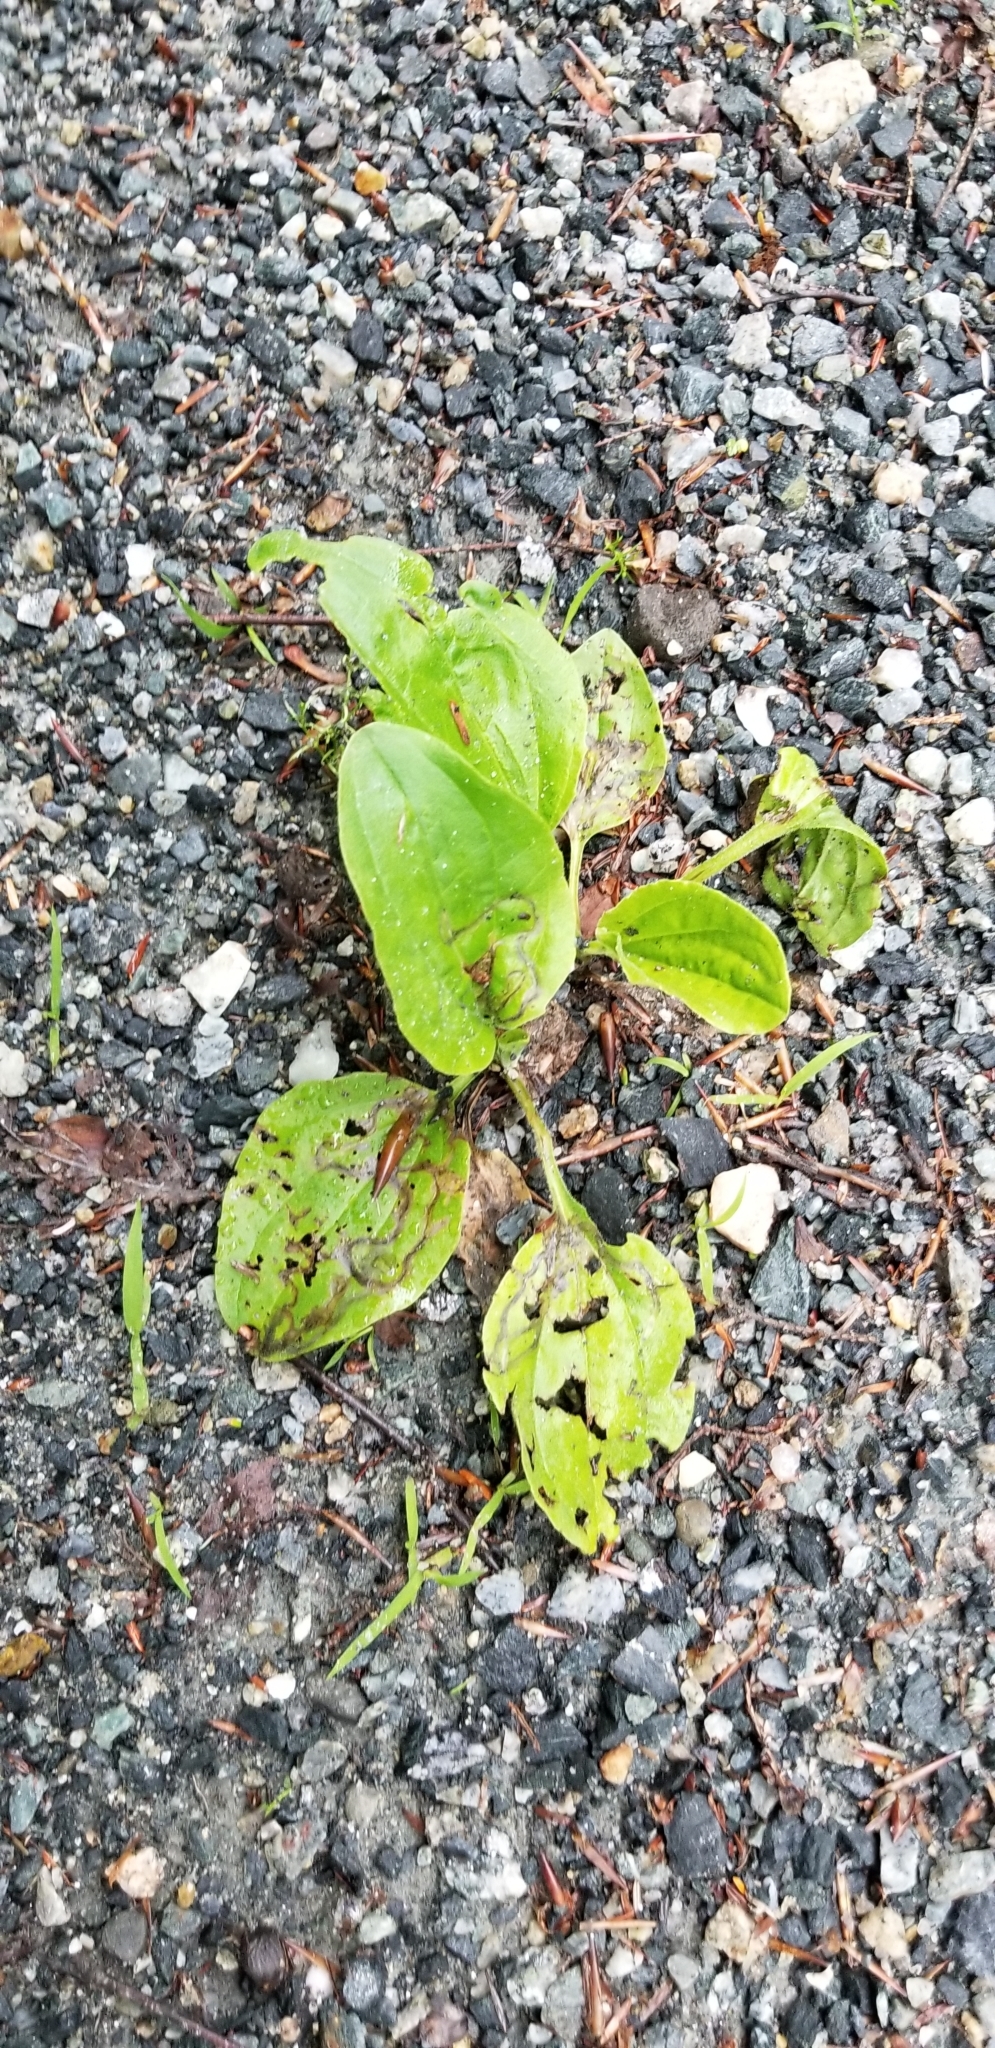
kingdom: Plantae
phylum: Tracheophyta
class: Magnoliopsida
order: Lamiales
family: Plantaginaceae
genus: Plantago
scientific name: Plantago major
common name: Common plantain
